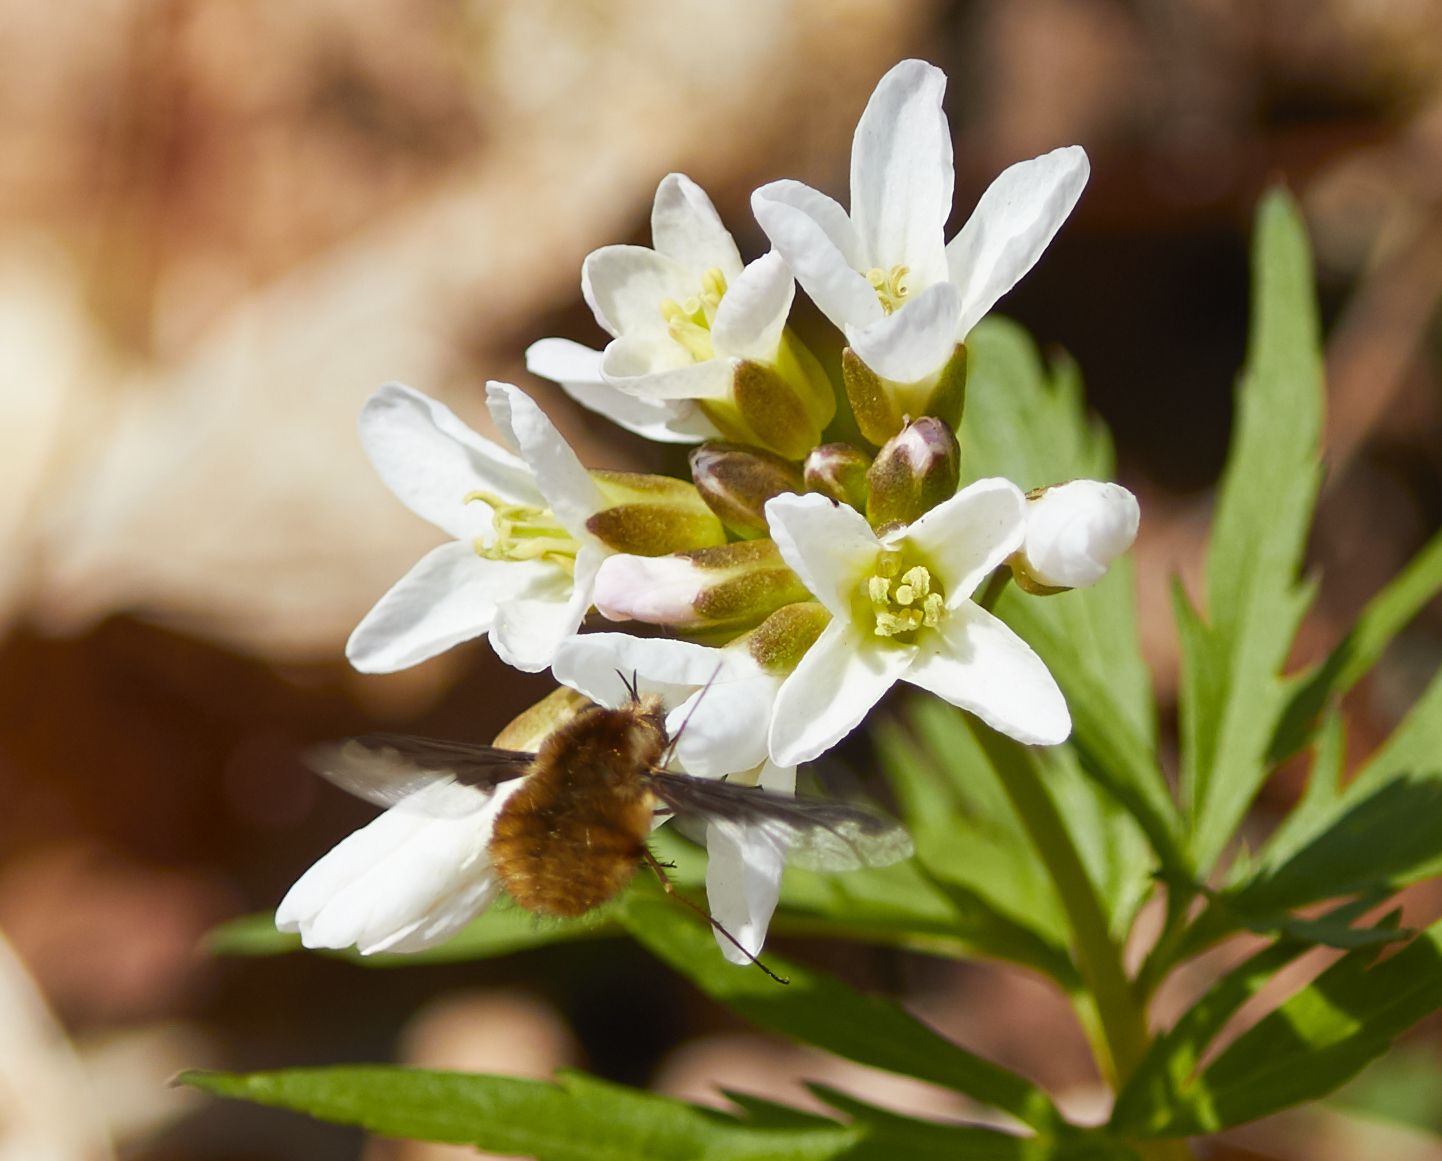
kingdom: Plantae
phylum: Tracheophyta
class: Magnoliopsida
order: Brassicales
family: Brassicaceae
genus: Cardamine
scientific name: Cardamine concatenata
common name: Cut-leaf toothcup
